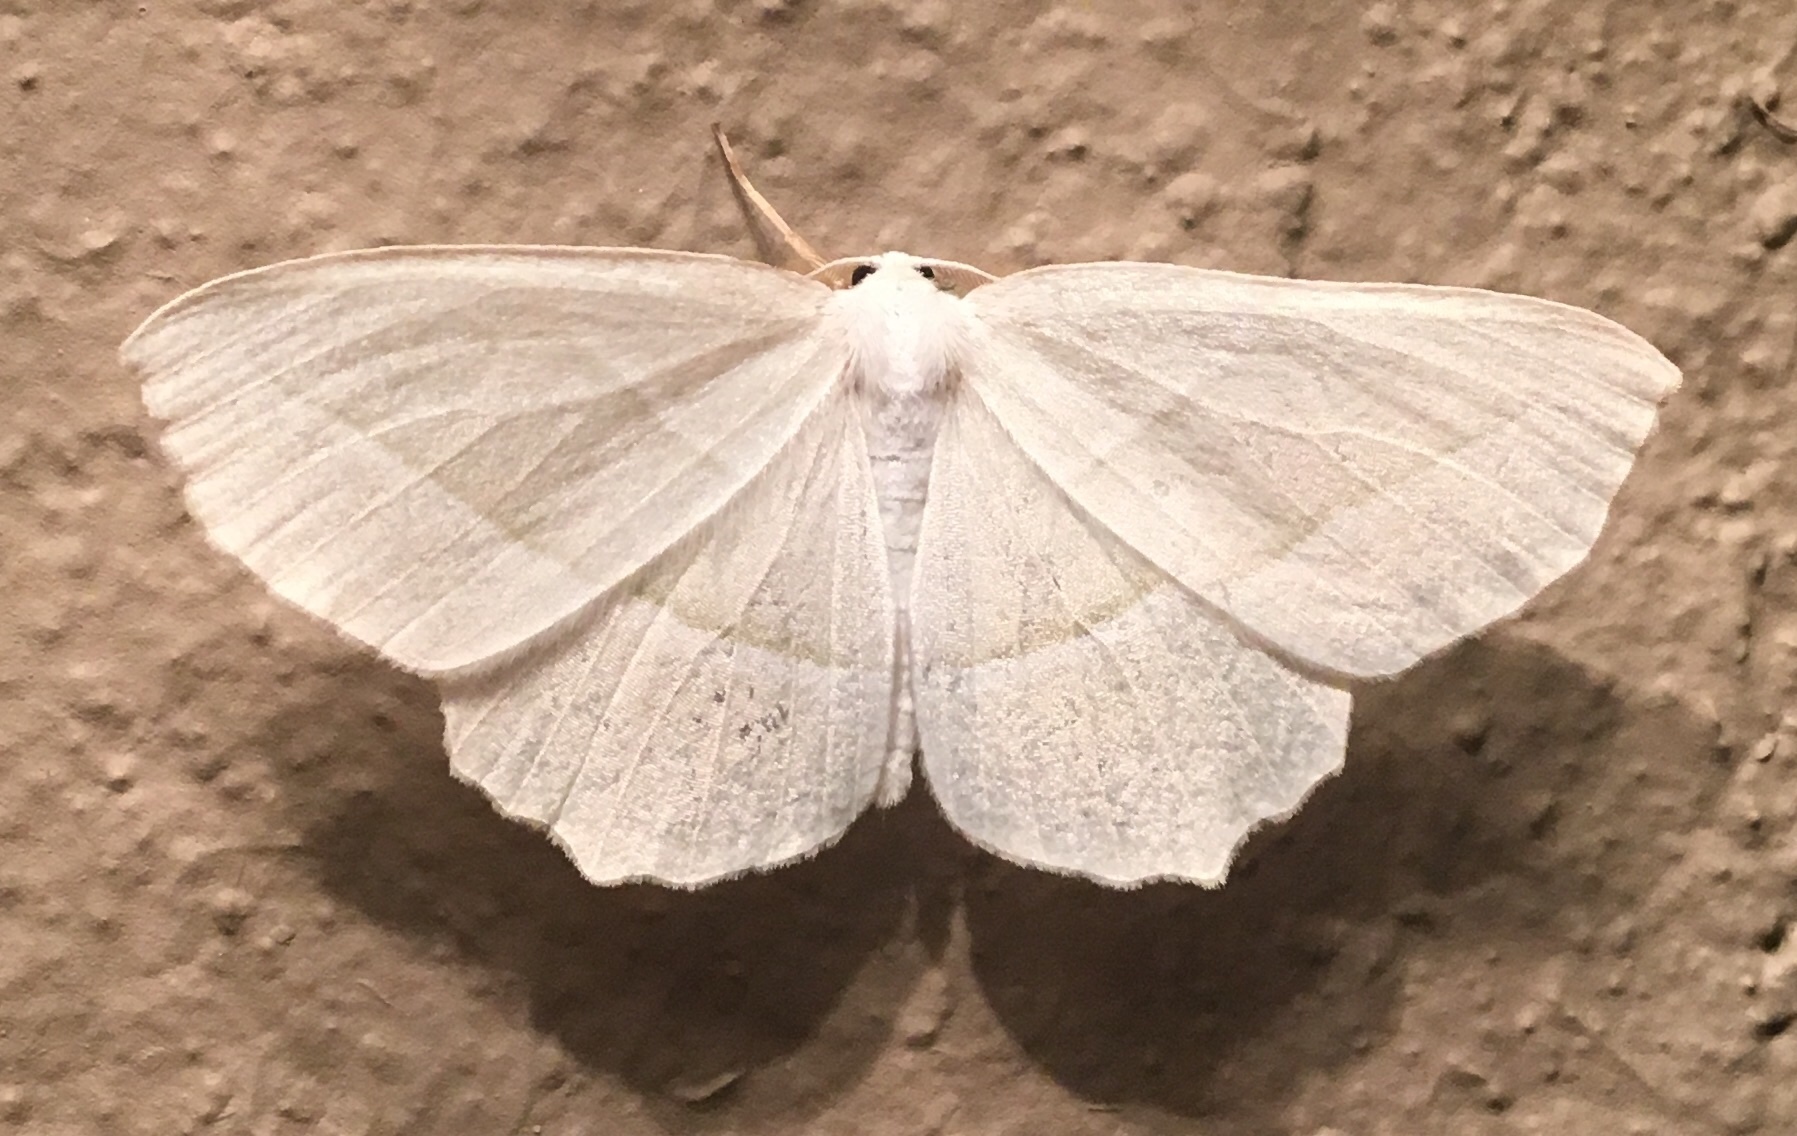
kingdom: Animalia
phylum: Arthropoda
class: Insecta
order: Lepidoptera
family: Geometridae
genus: Campaea
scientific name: Campaea perlata
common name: Fringed looper
